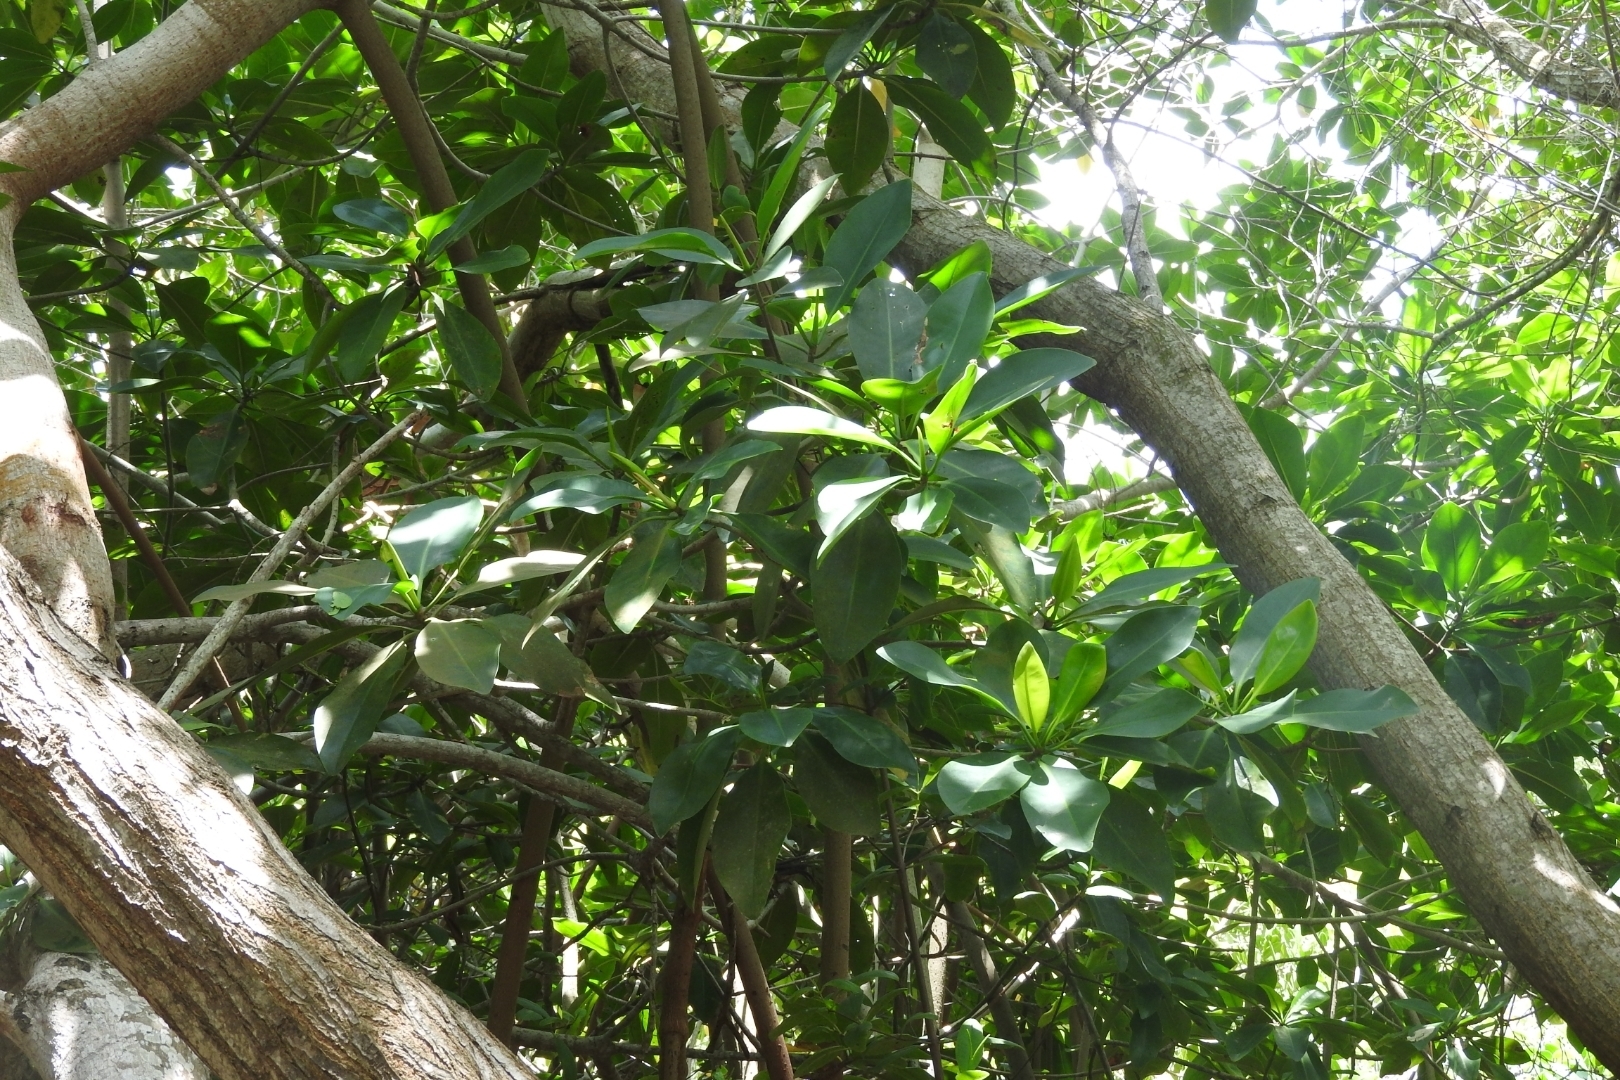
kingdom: Plantae
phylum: Tracheophyta
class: Magnoliopsida
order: Malpighiales
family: Rhizophoraceae
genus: Rhizophora
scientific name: Rhizophora mangle
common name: Red mangrove
